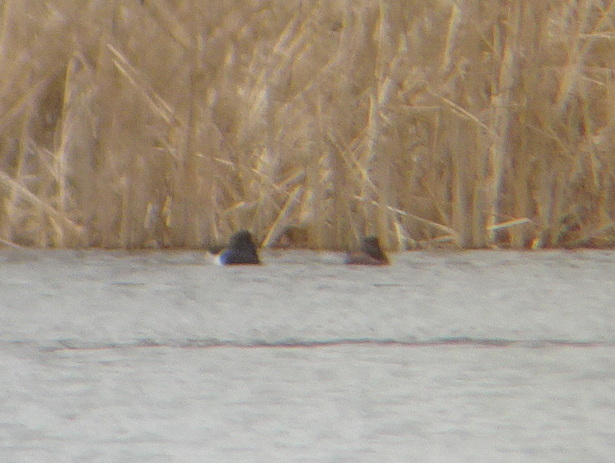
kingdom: Animalia
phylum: Chordata
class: Aves
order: Anseriformes
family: Anatidae
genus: Aythya
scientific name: Aythya collaris
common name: Ring-necked duck
